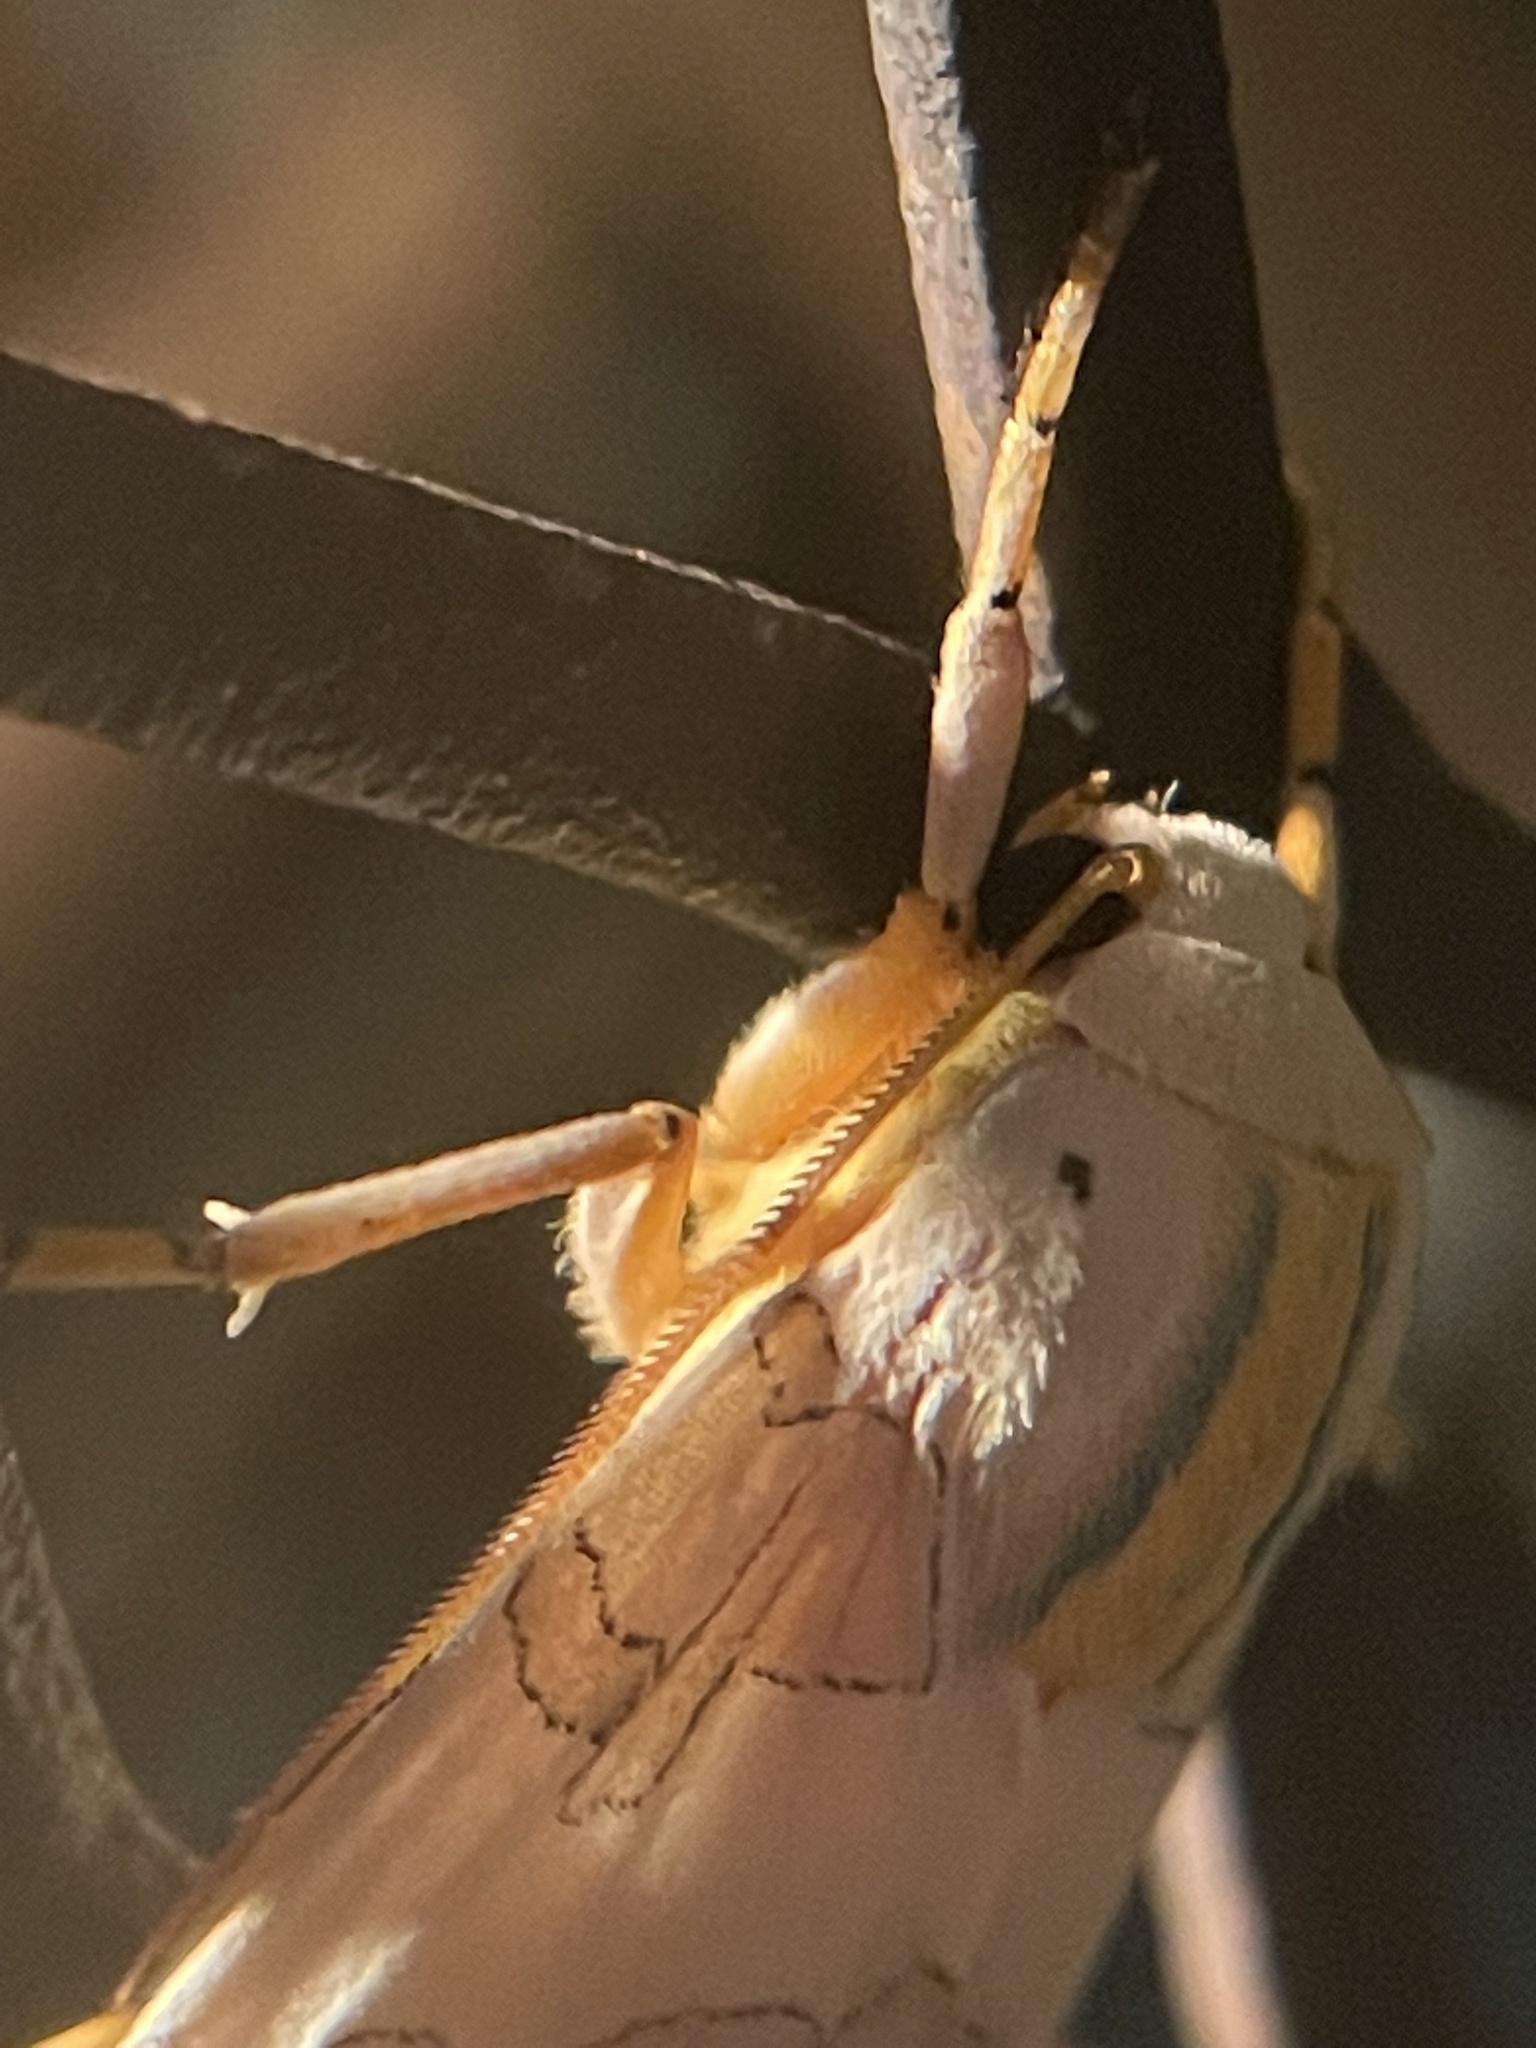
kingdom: Animalia
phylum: Arthropoda
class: Insecta
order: Lepidoptera
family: Erebidae
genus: Halysidota
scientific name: Halysidota
